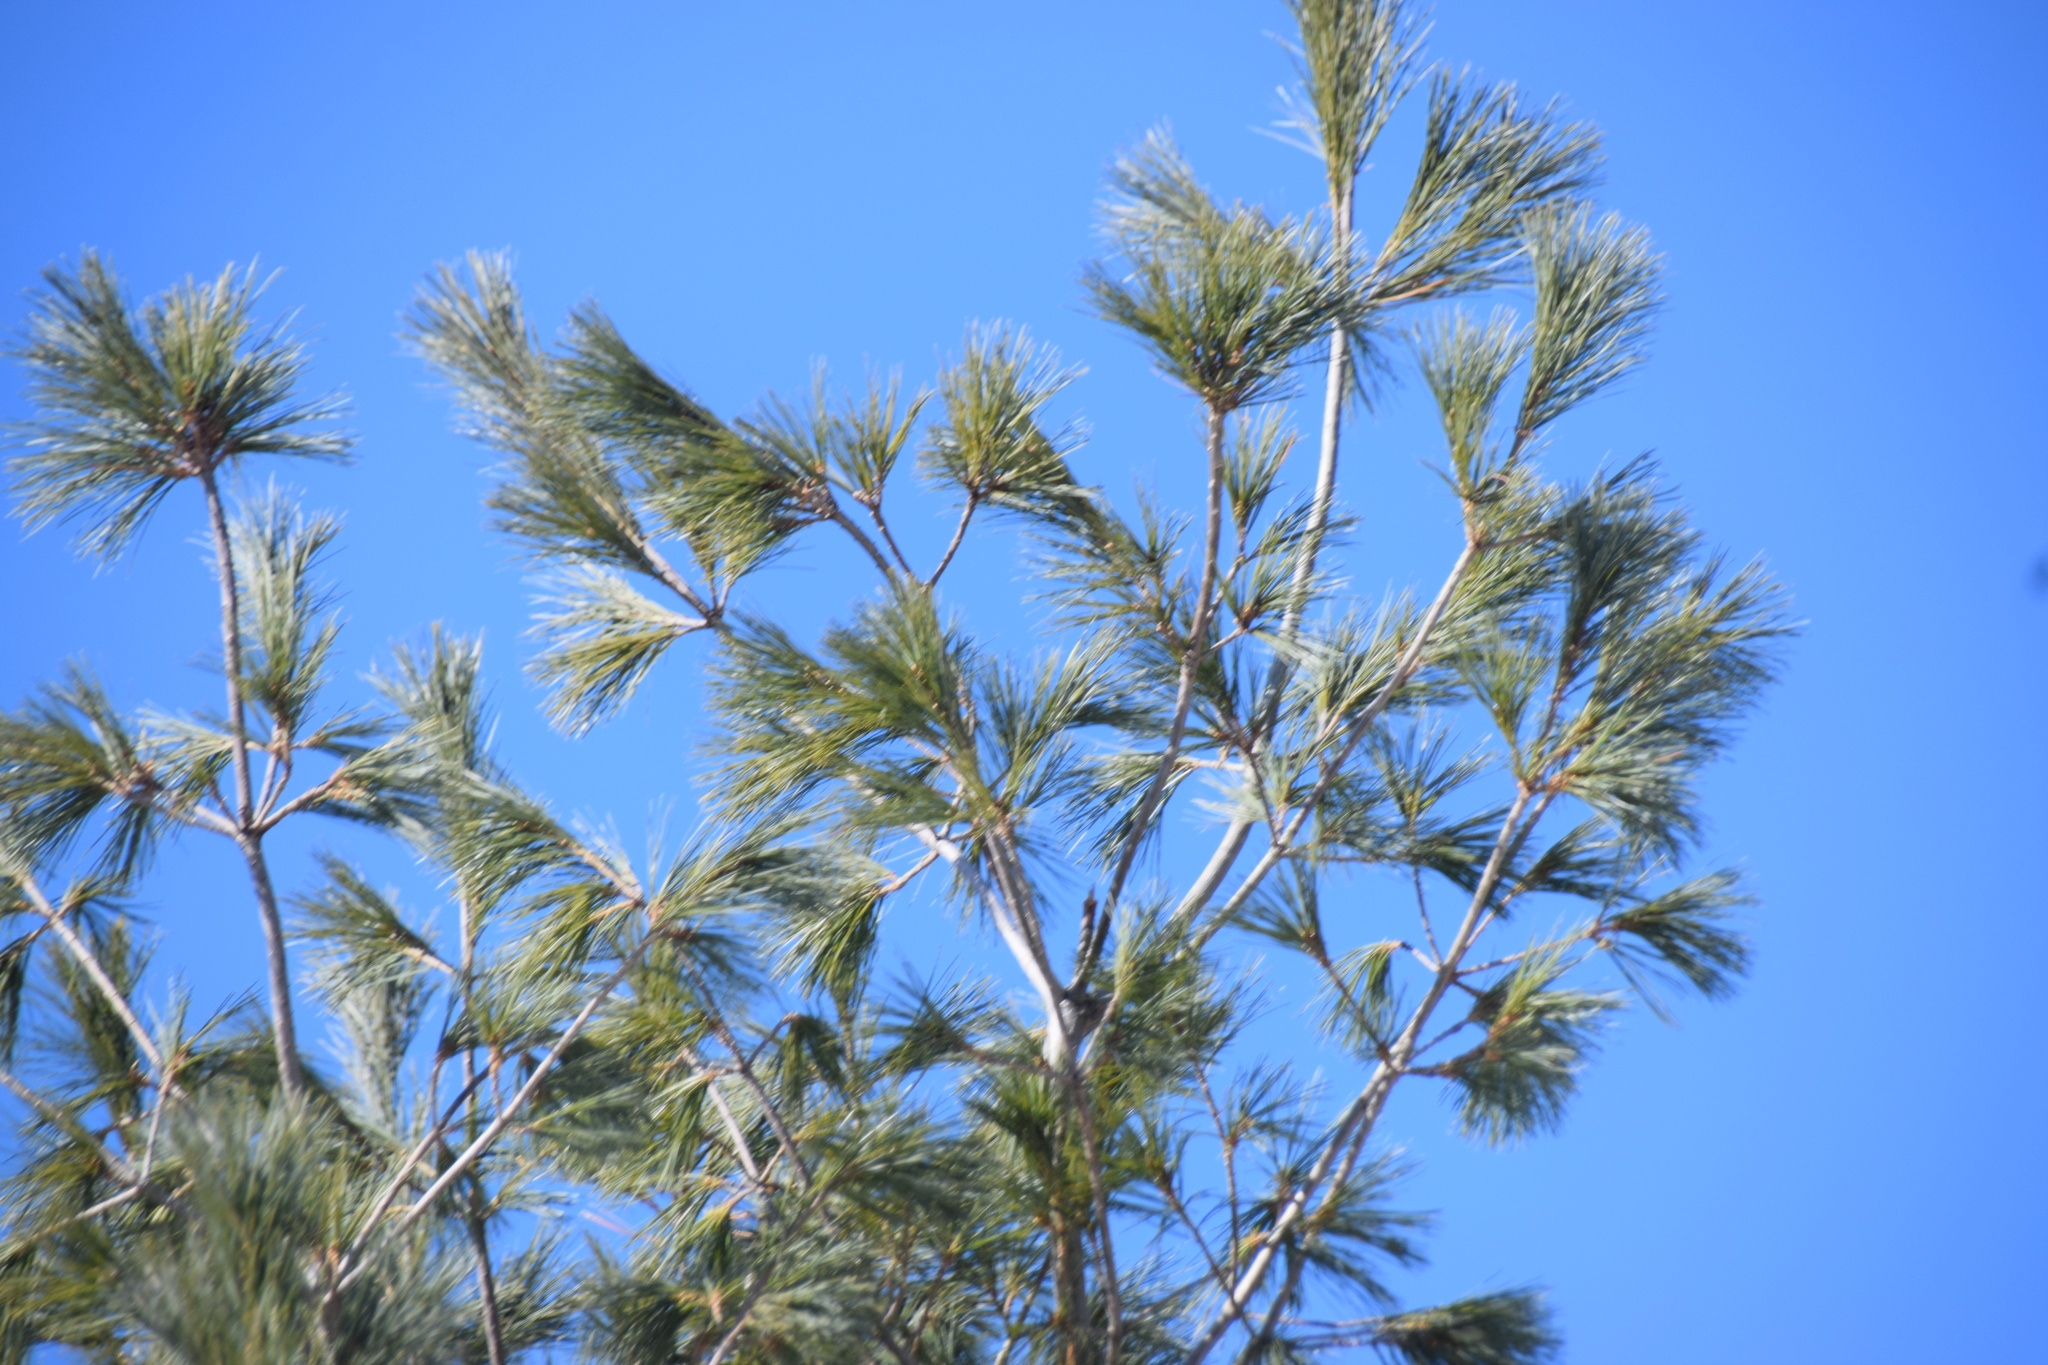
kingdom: Plantae
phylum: Tracheophyta
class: Pinopsida
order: Pinales
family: Pinaceae
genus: Pinus
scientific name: Pinus strobus
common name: Weymouth pine
